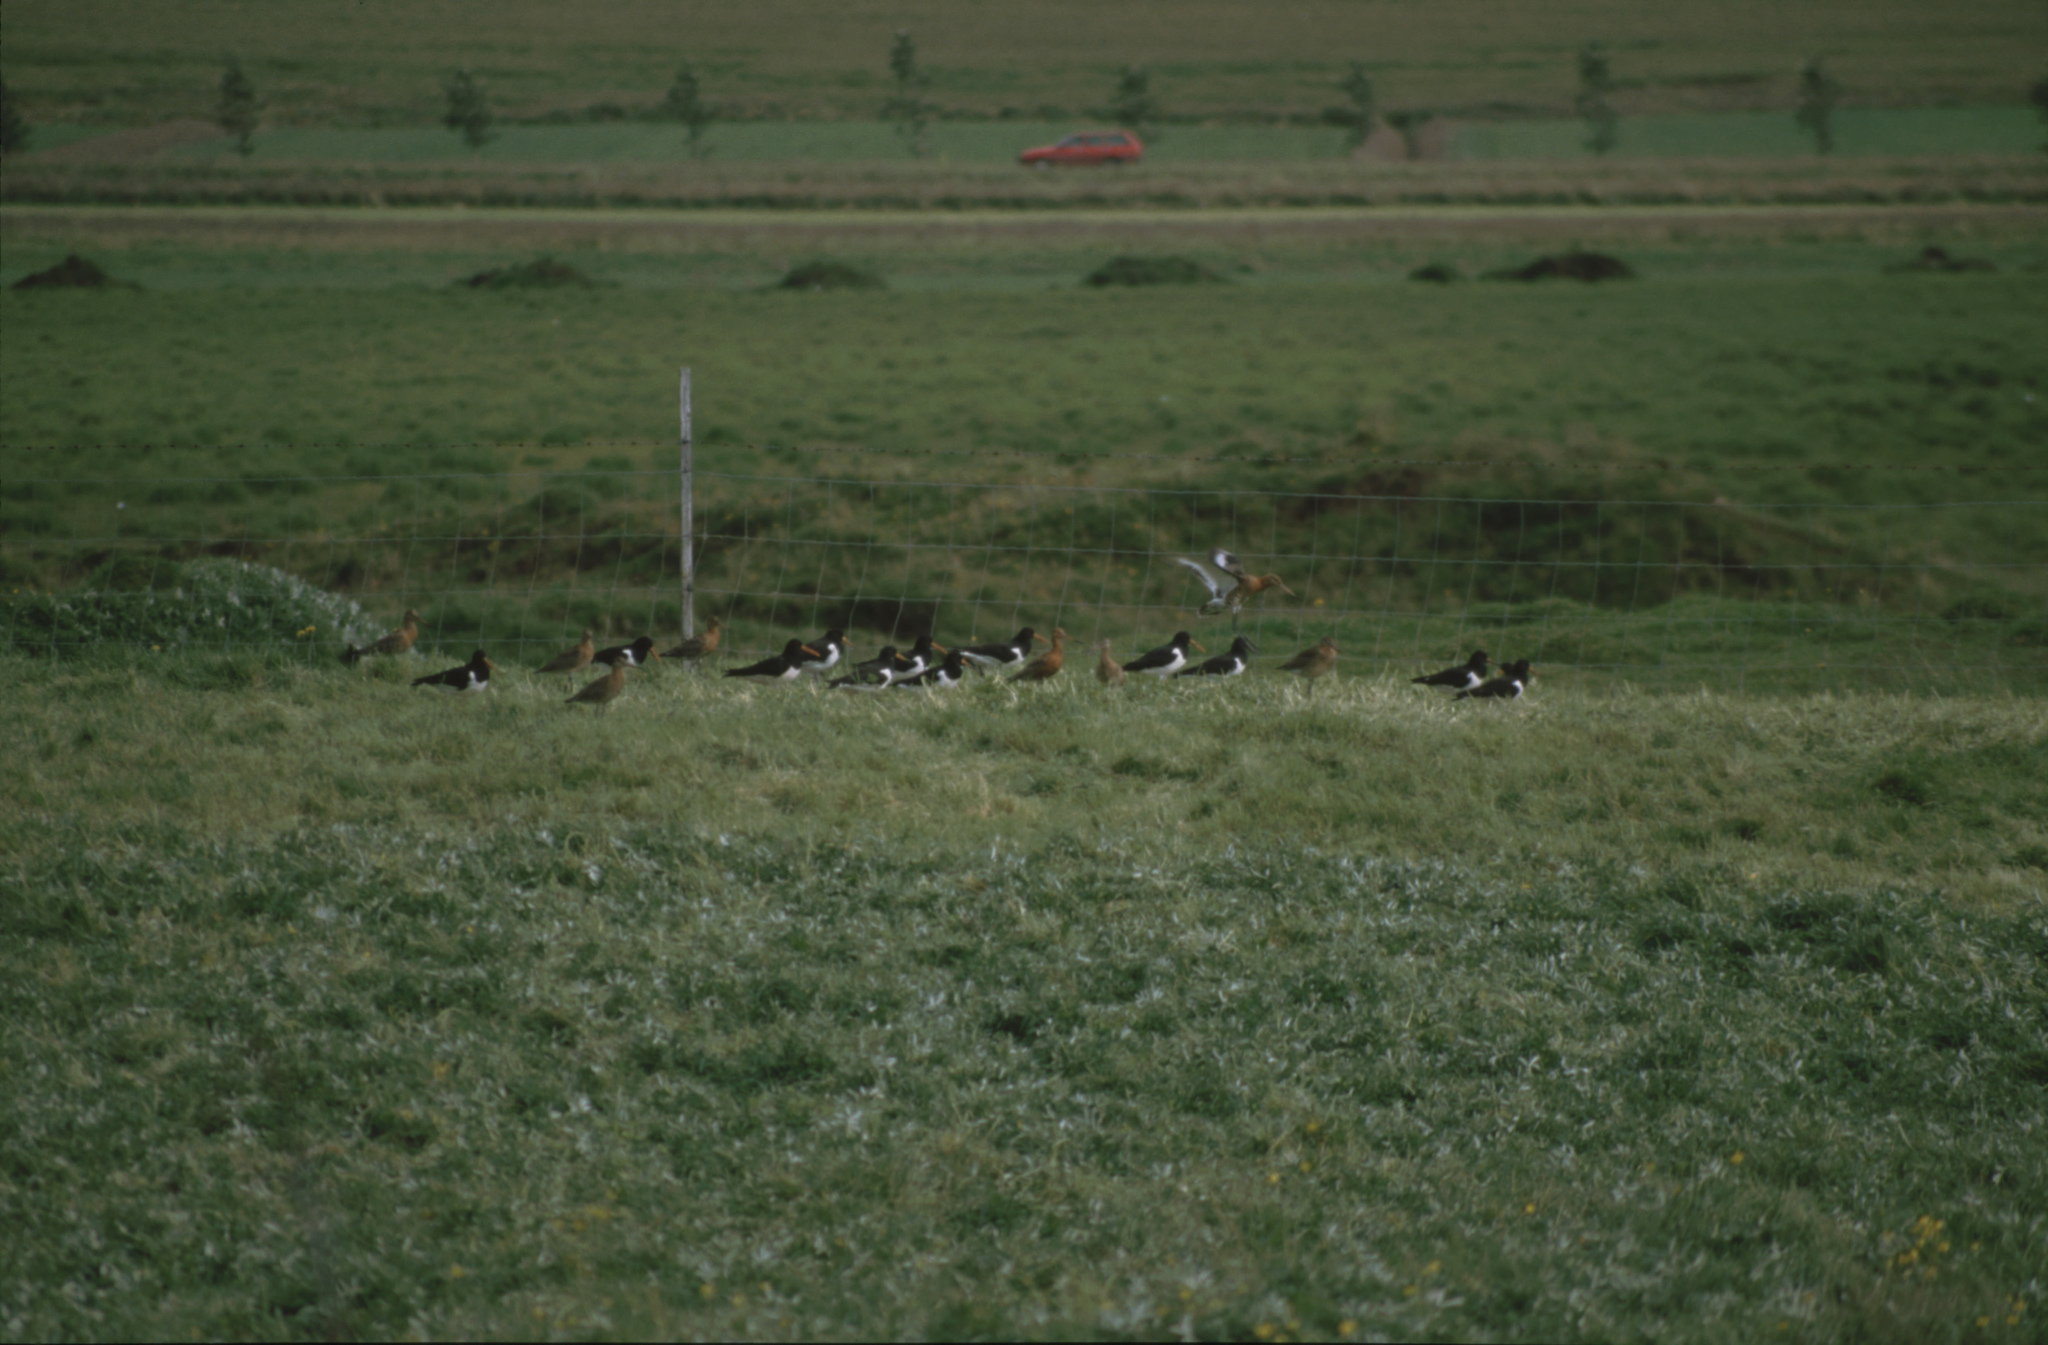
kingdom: Animalia
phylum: Chordata
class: Aves
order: Charadriiformes
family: Haematopodidae
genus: Haematopus
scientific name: Haematopus ostralegus
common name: Eurasian oystercatcher
